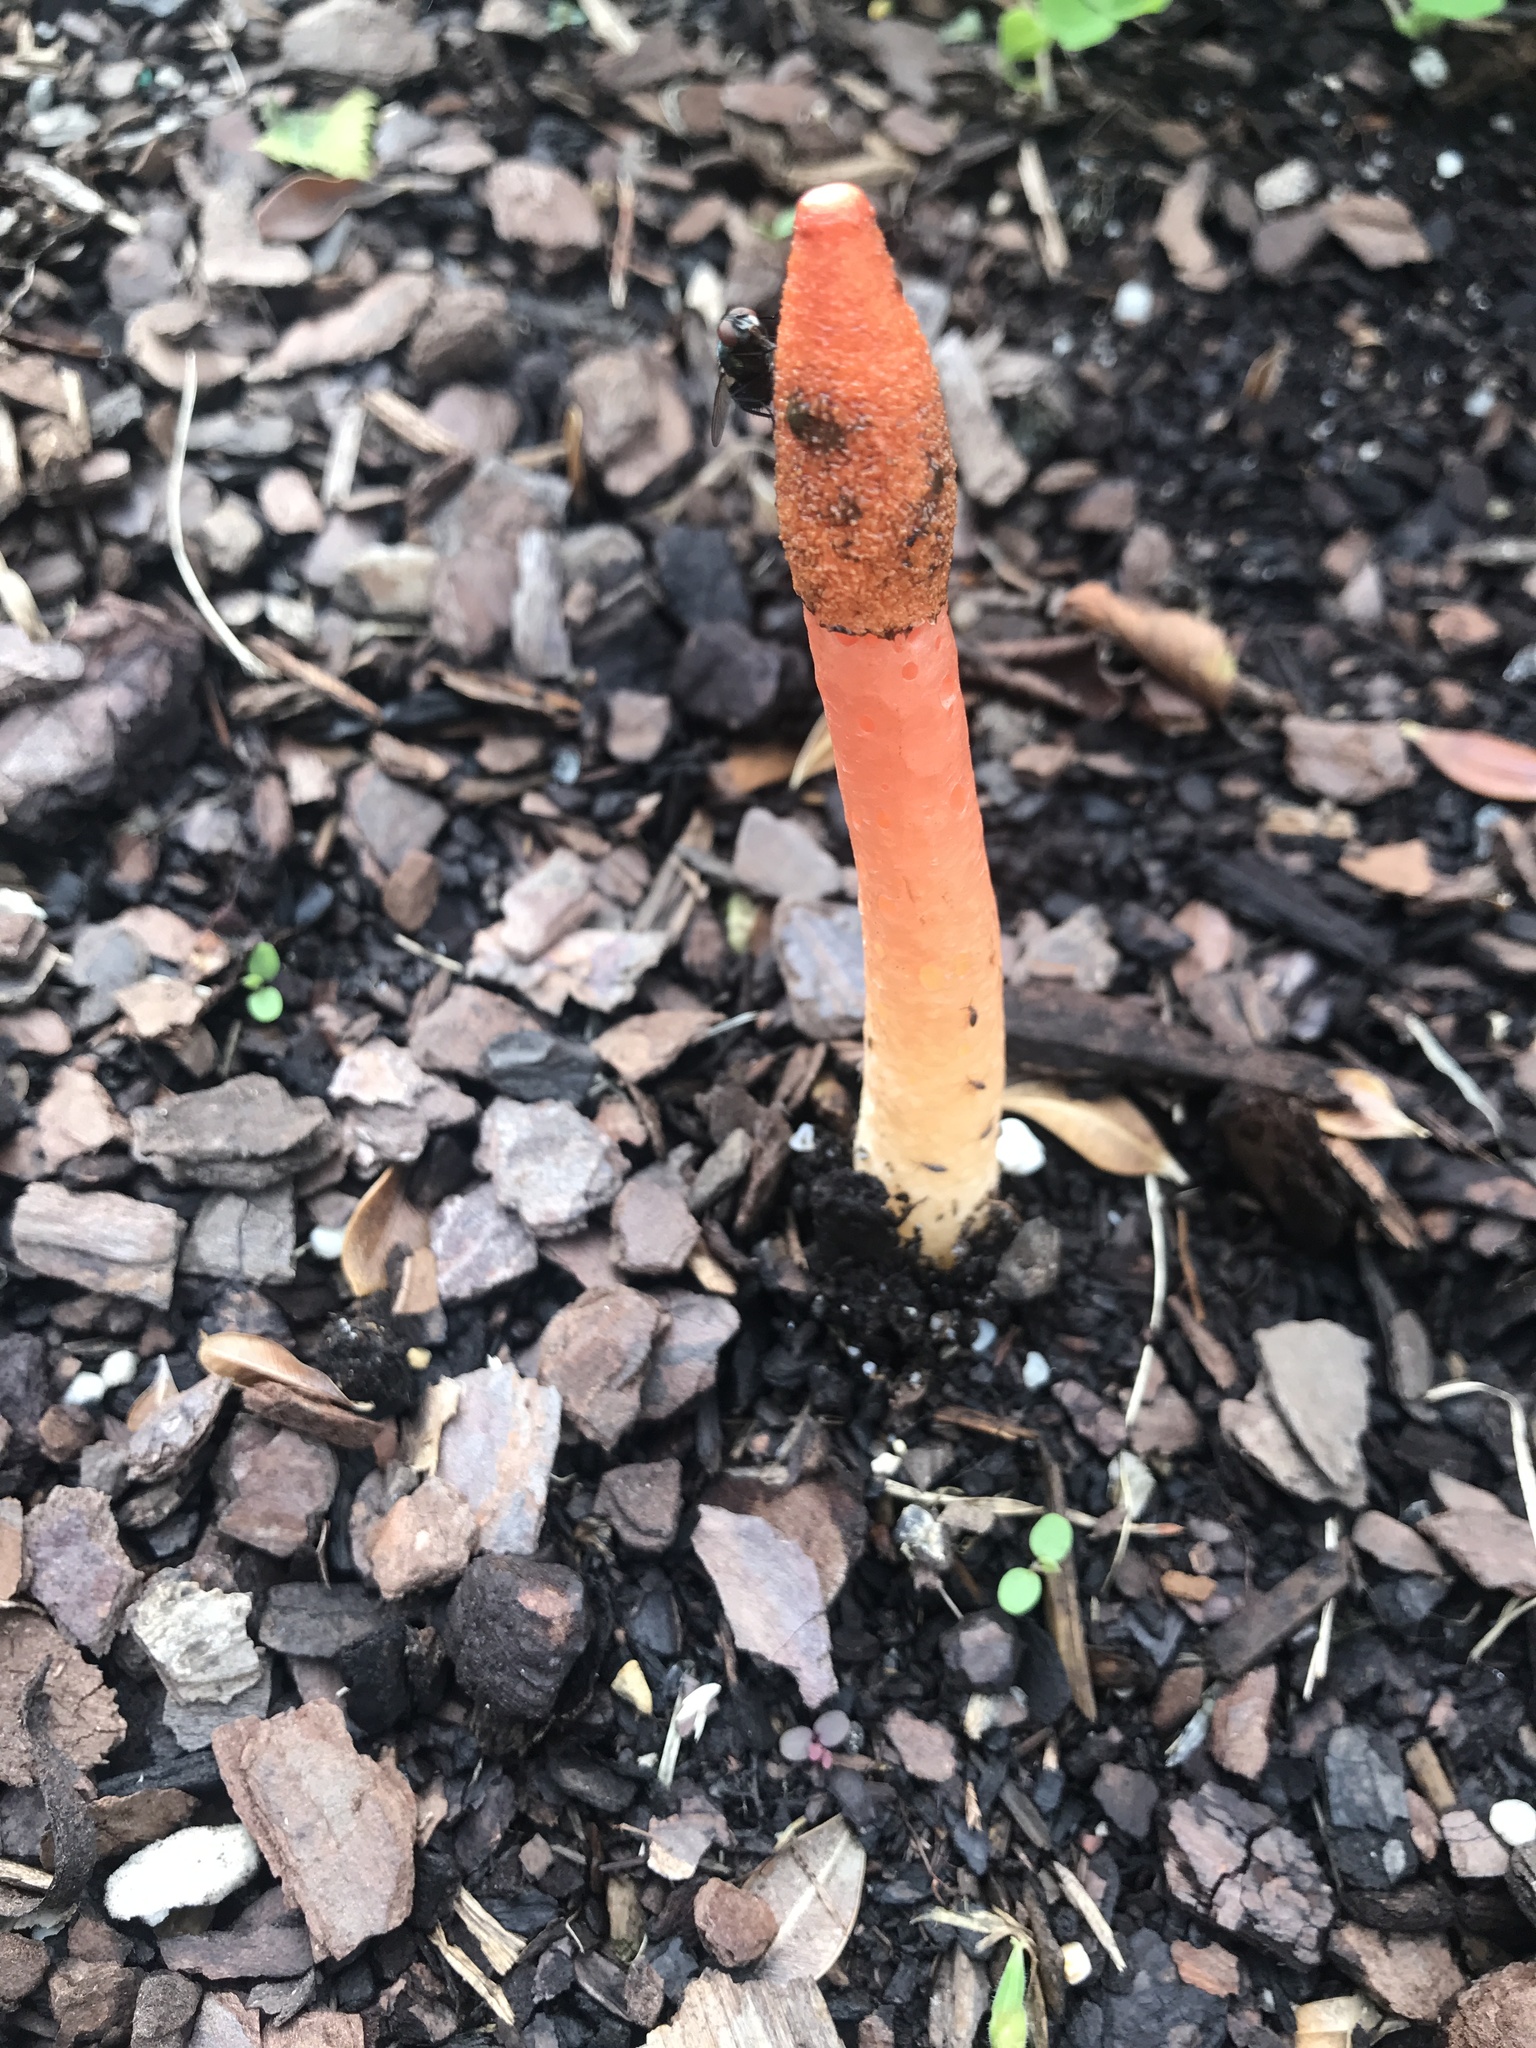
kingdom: Fungi
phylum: Basidiomycota
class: Agaricomycetes
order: Phallales
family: Phallaceae
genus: Phallus
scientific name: Phallus rugulosus
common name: Wrinkly stinkhorn
